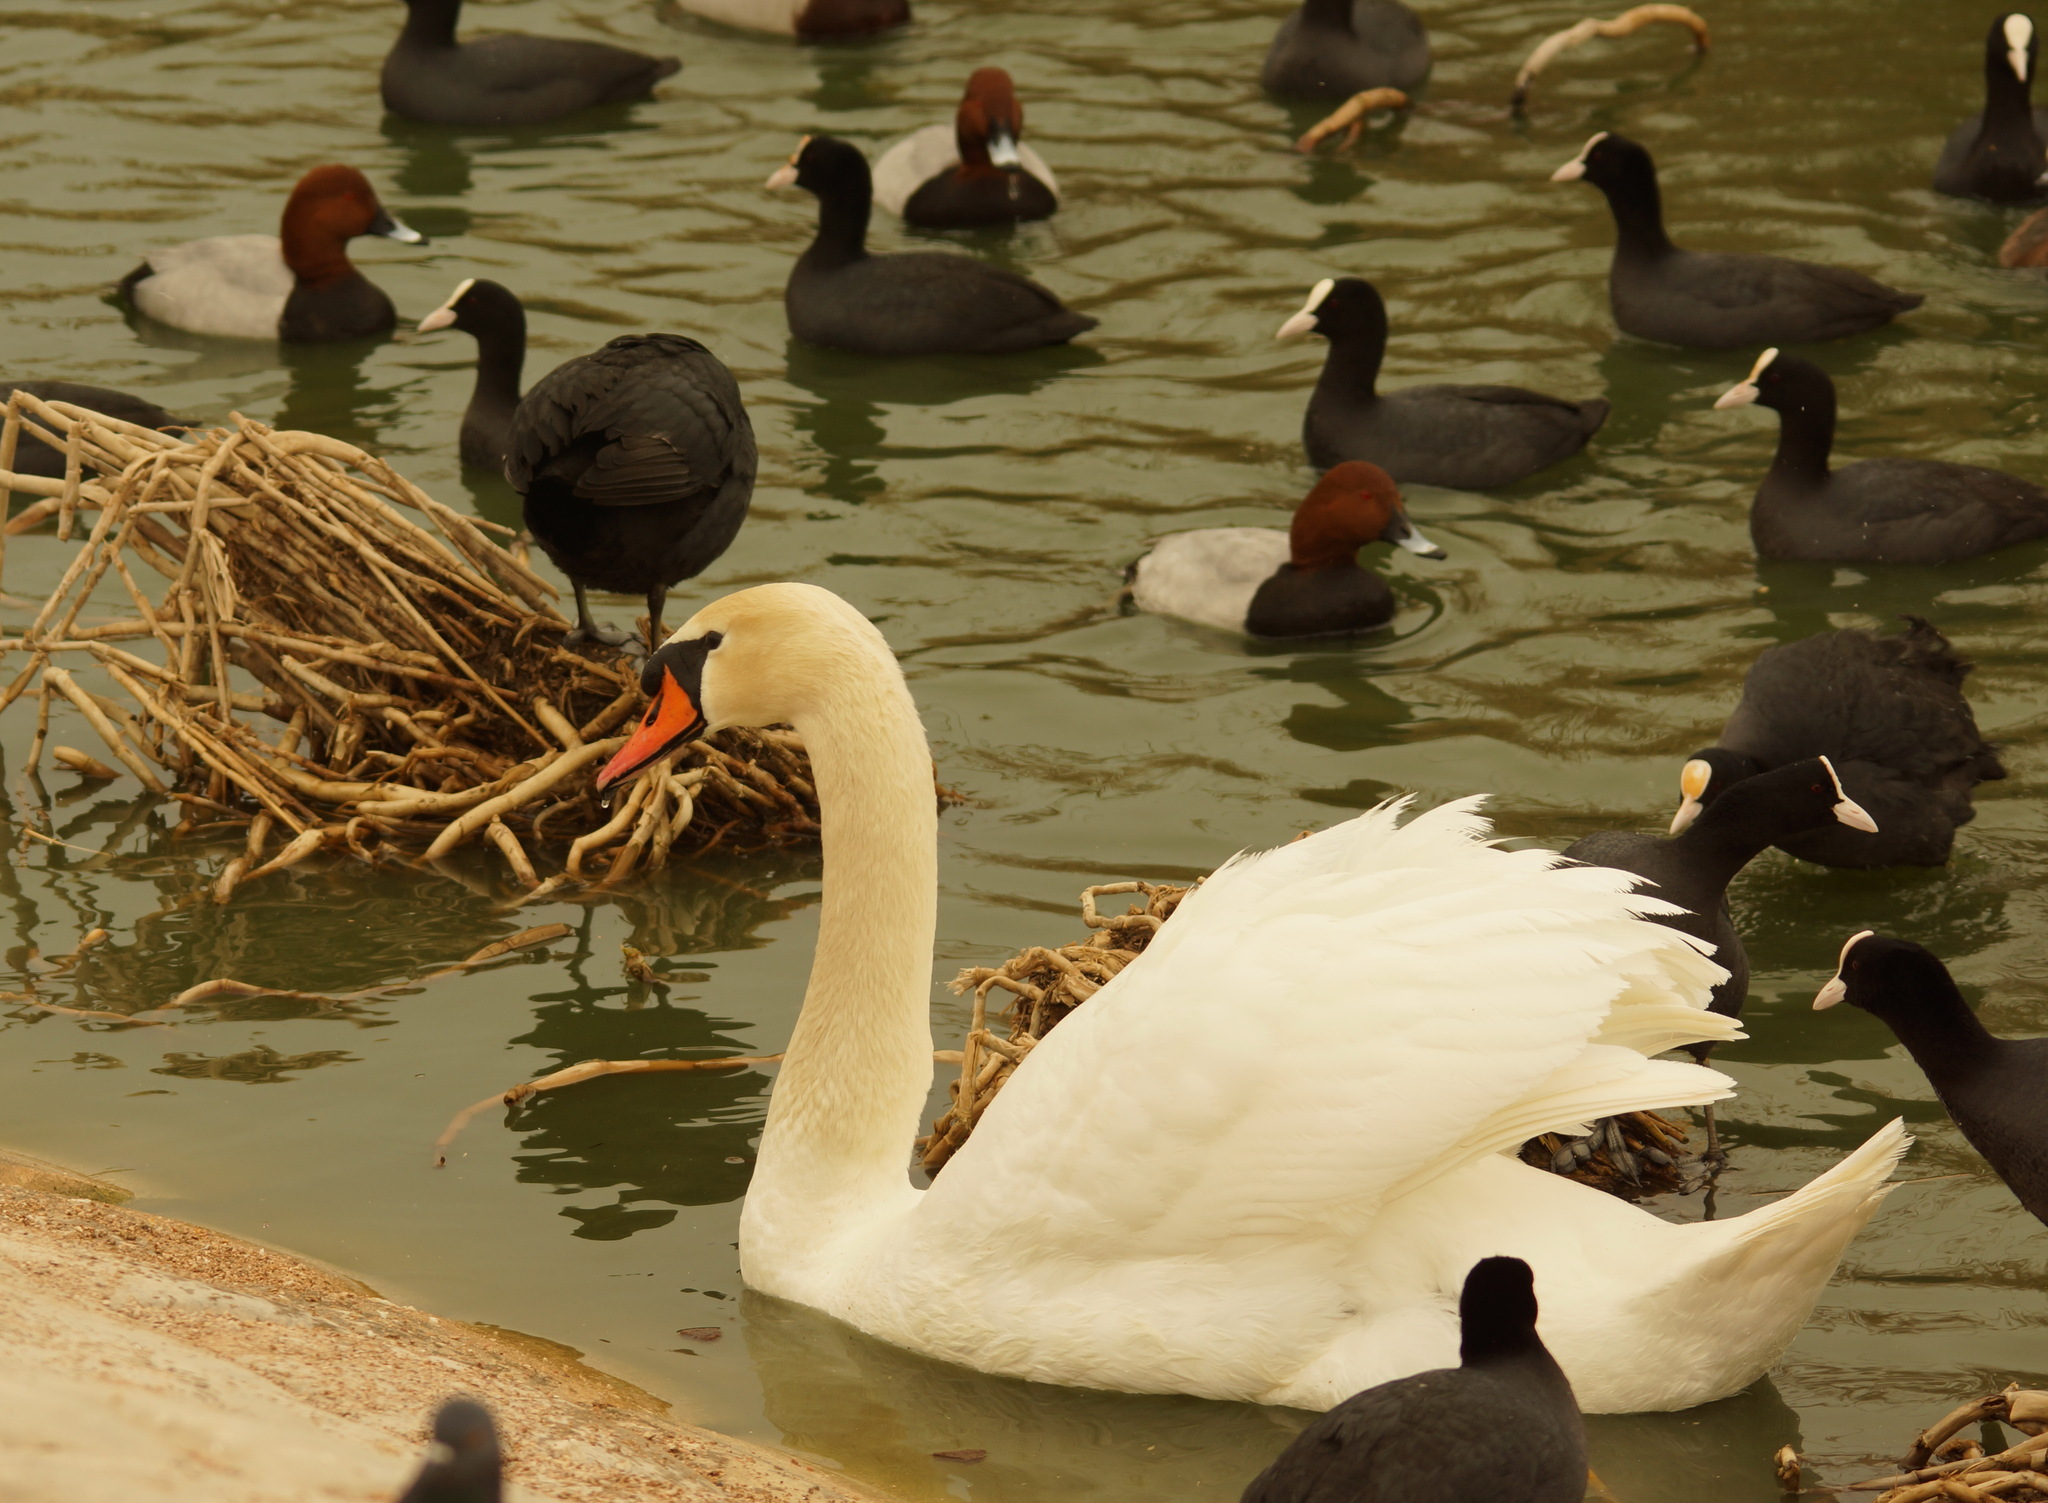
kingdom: Animalia
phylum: Chordata
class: Aves
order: Anseriformes
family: Anatidae
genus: Cygnus
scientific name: Cygnus olor
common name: Mute swan
